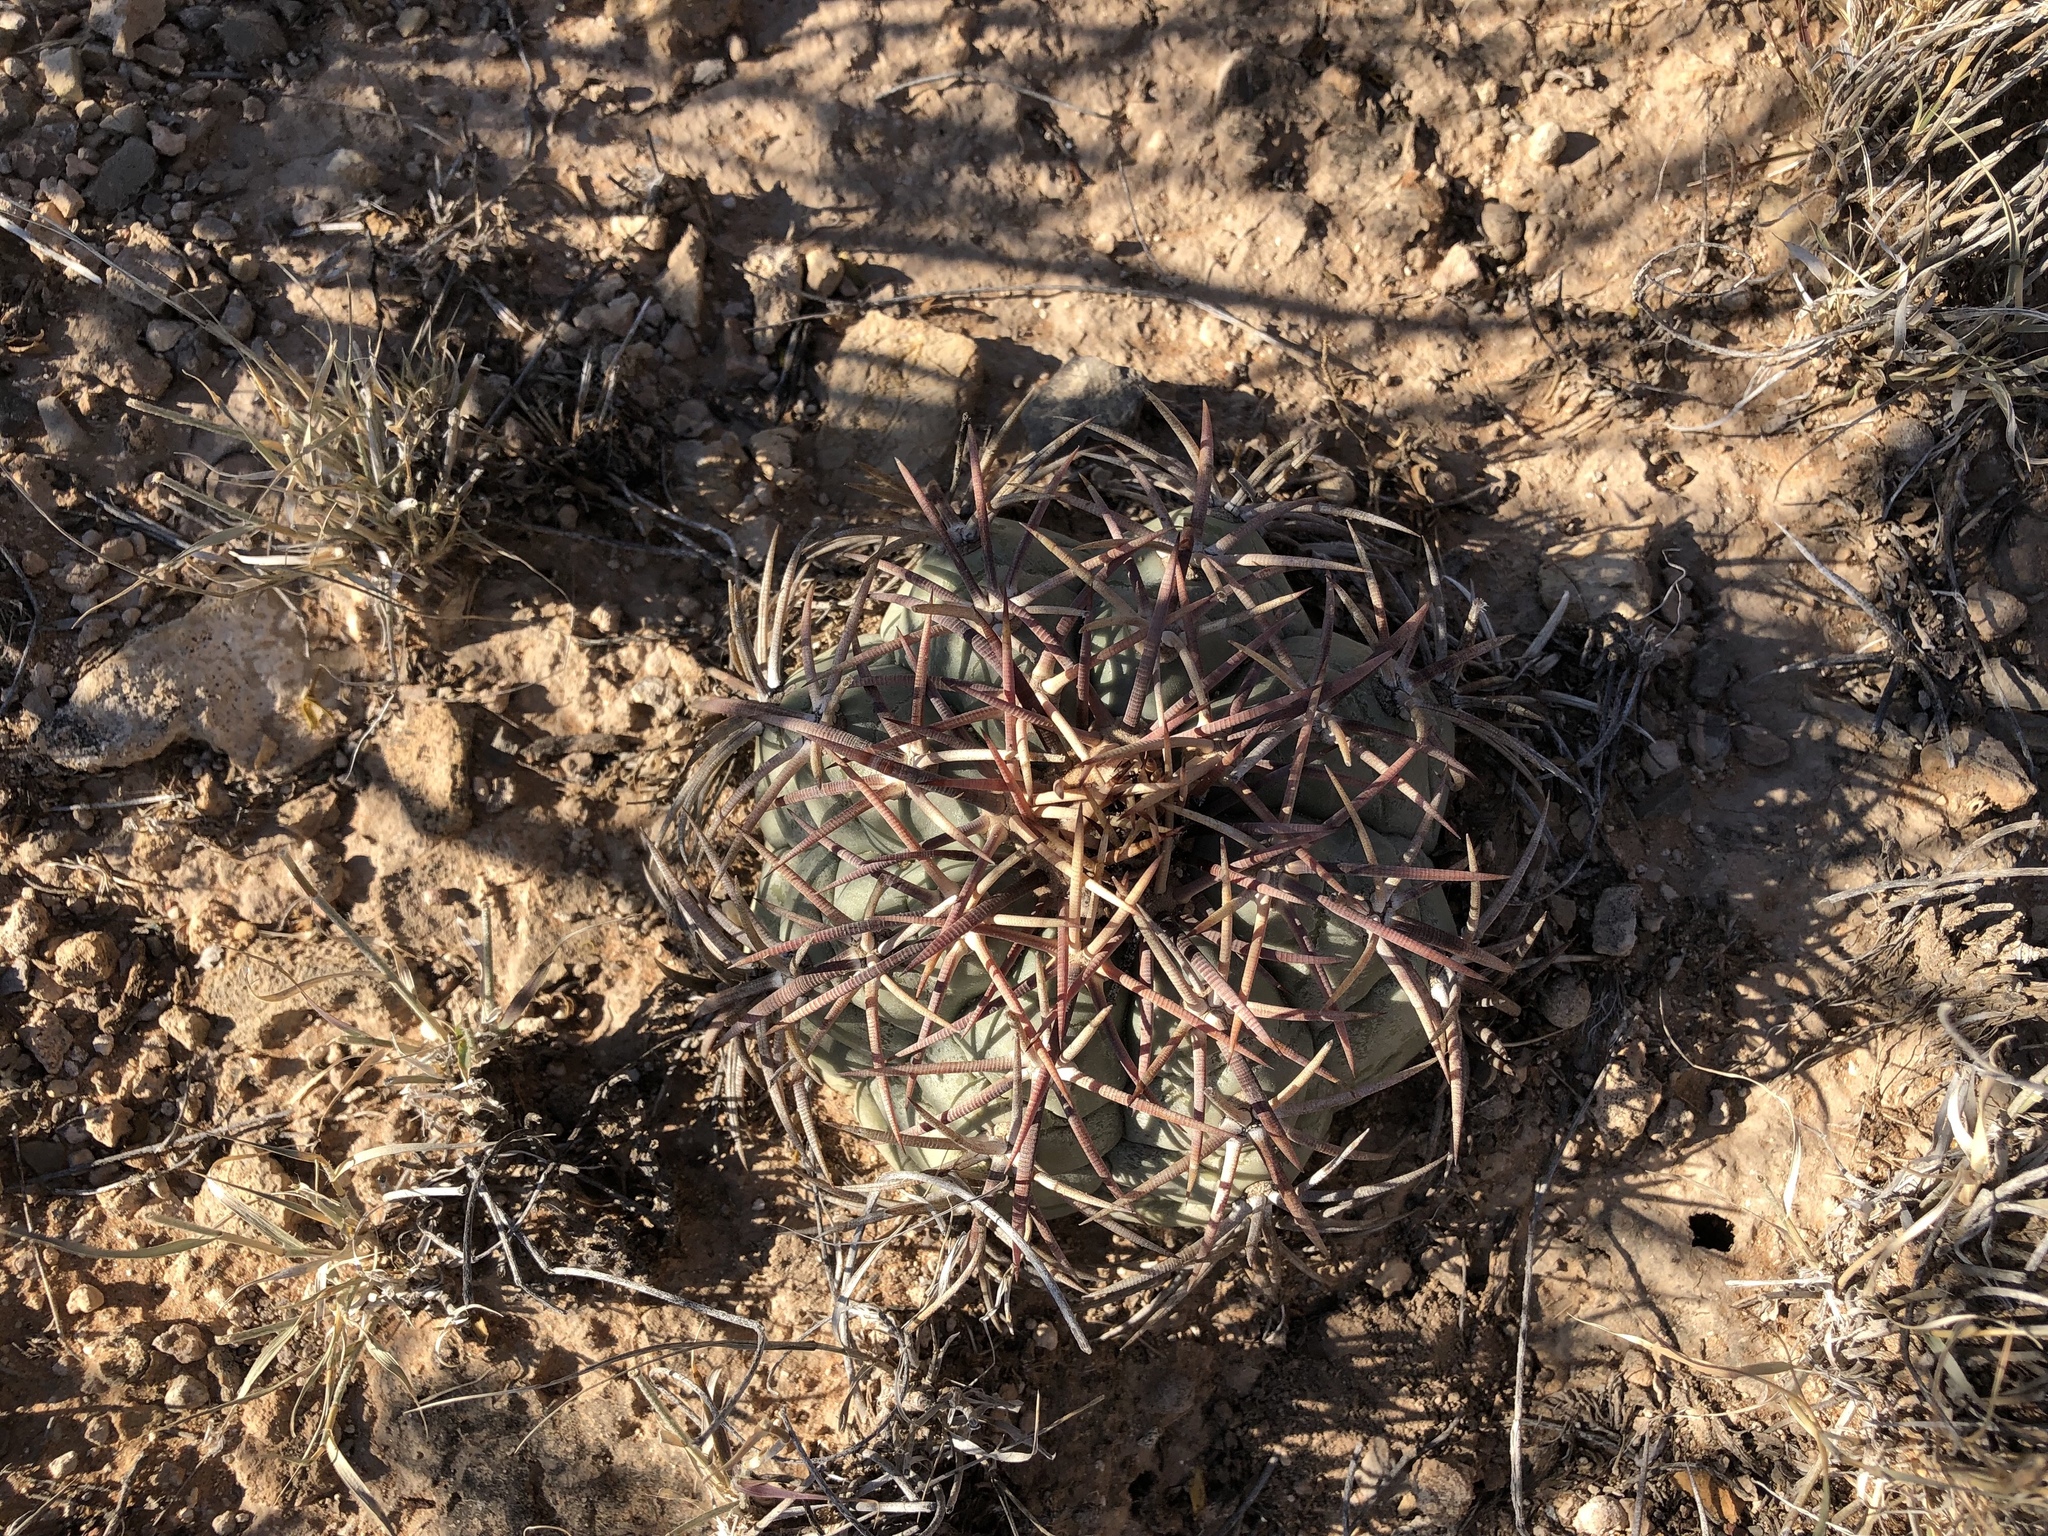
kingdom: Plantae
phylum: Tracheophyta
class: Magnoliopsida
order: Caryophyllales
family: Cactaceae
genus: Echinocactus
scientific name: Echinocactus horizonthalonius
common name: Devilshead
